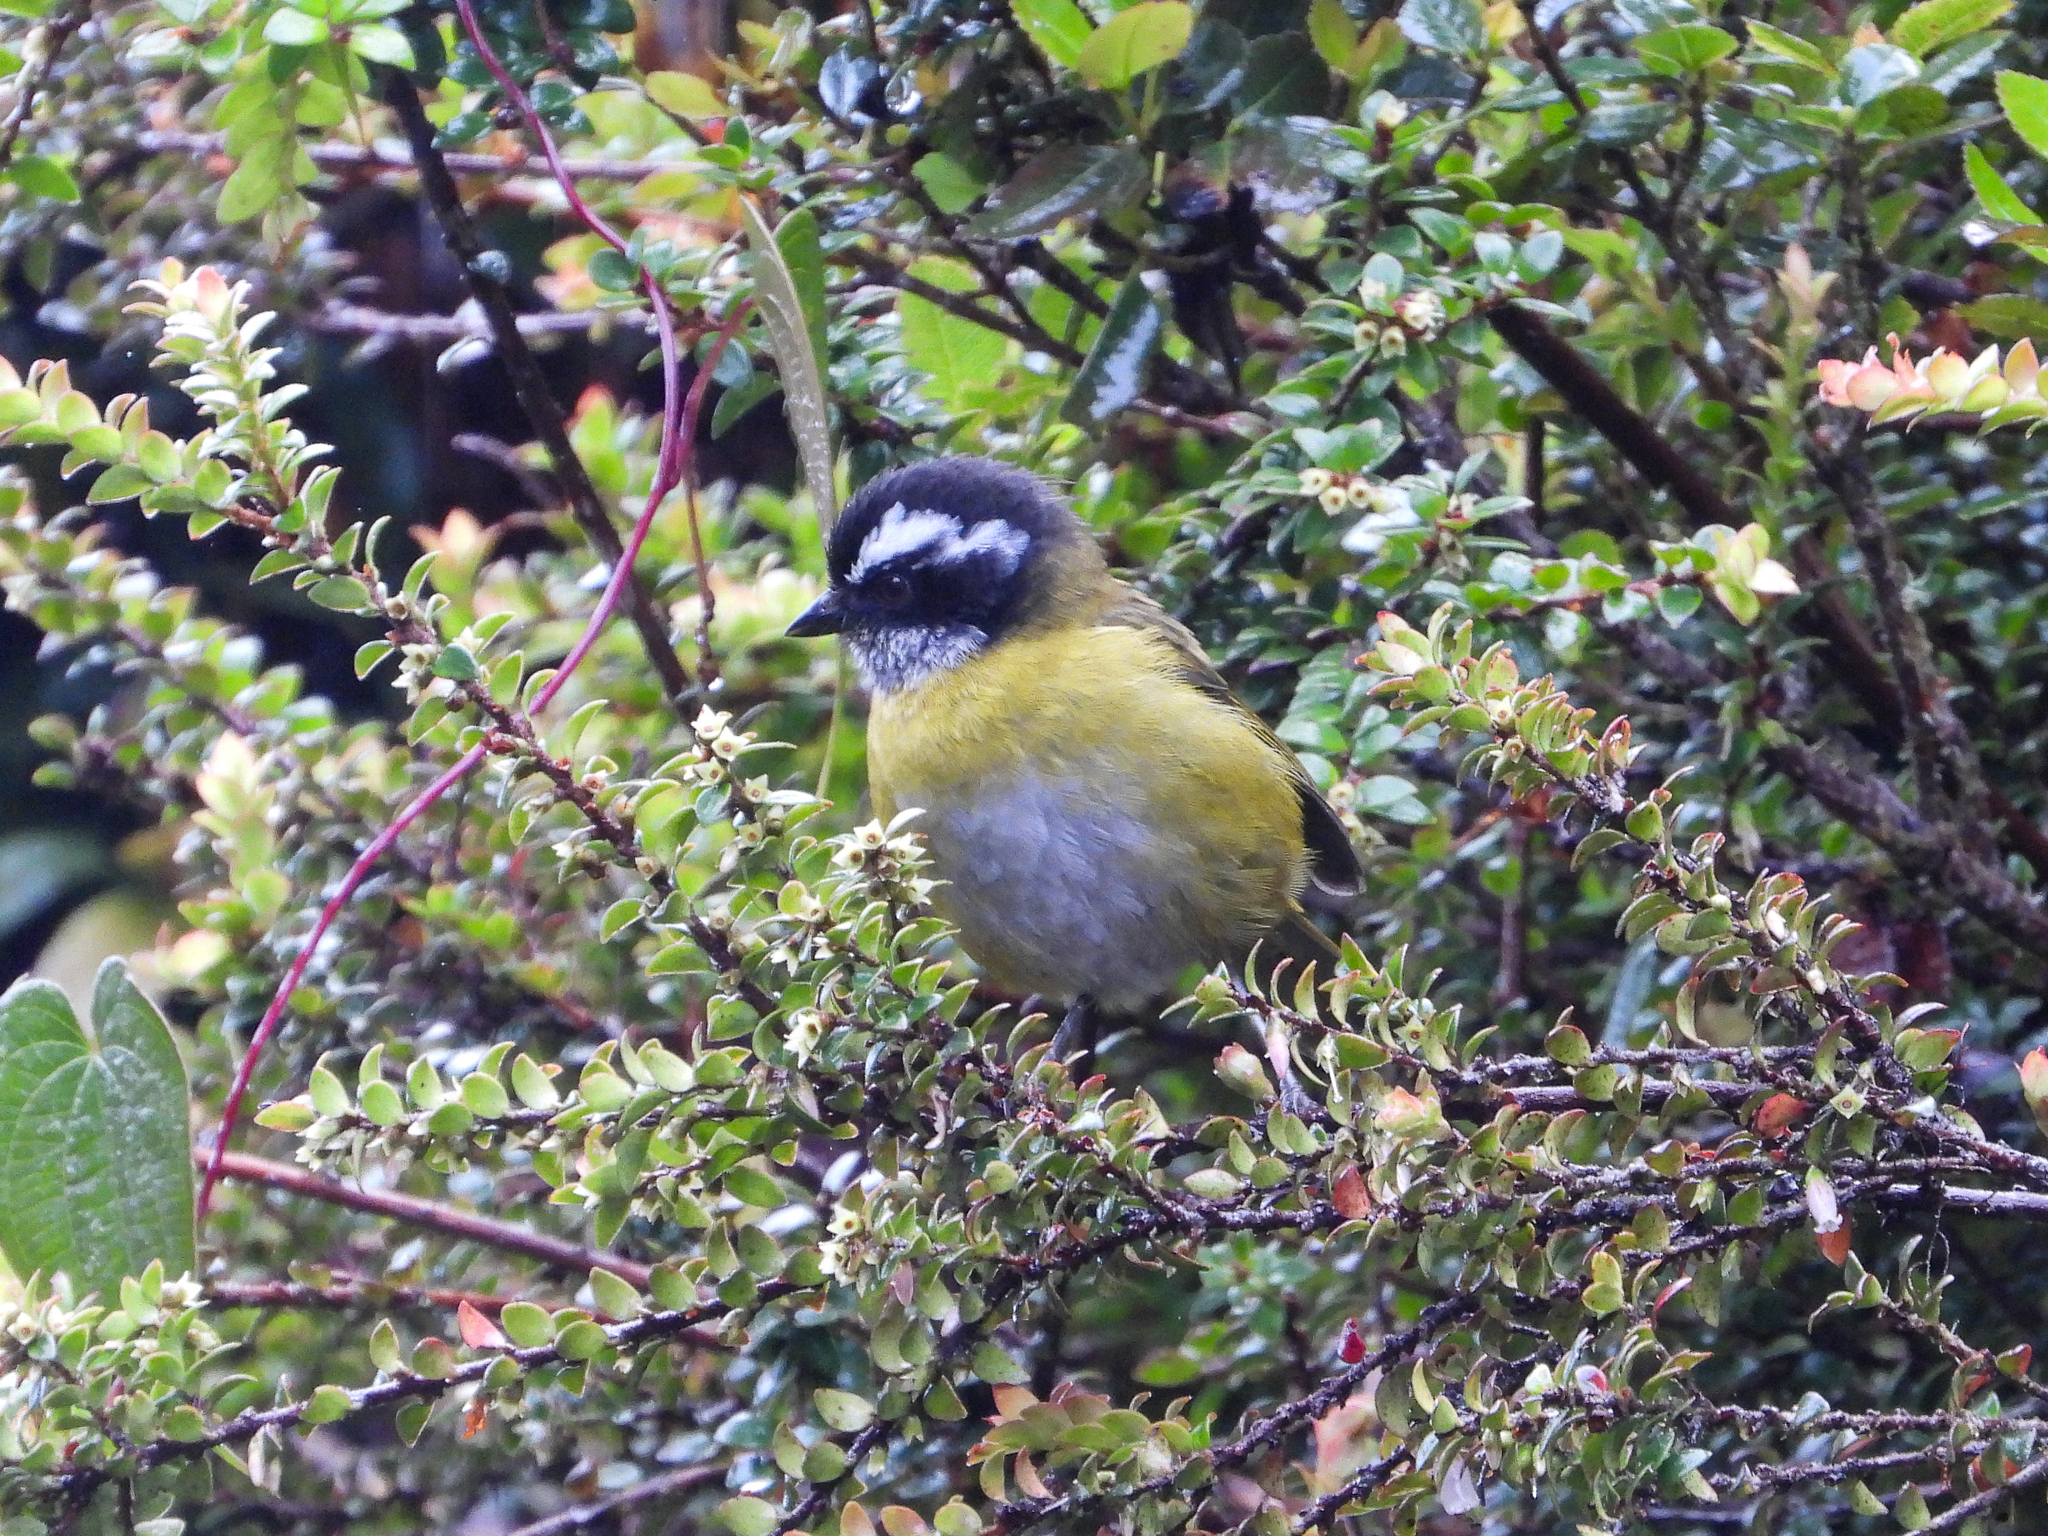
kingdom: Animalia
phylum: Chordata
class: Aves
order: Passeriformes
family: Passerellidae
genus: Chlorospingus
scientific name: Chlorospingus pileatus
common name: Sooty-capped bush-tanager
